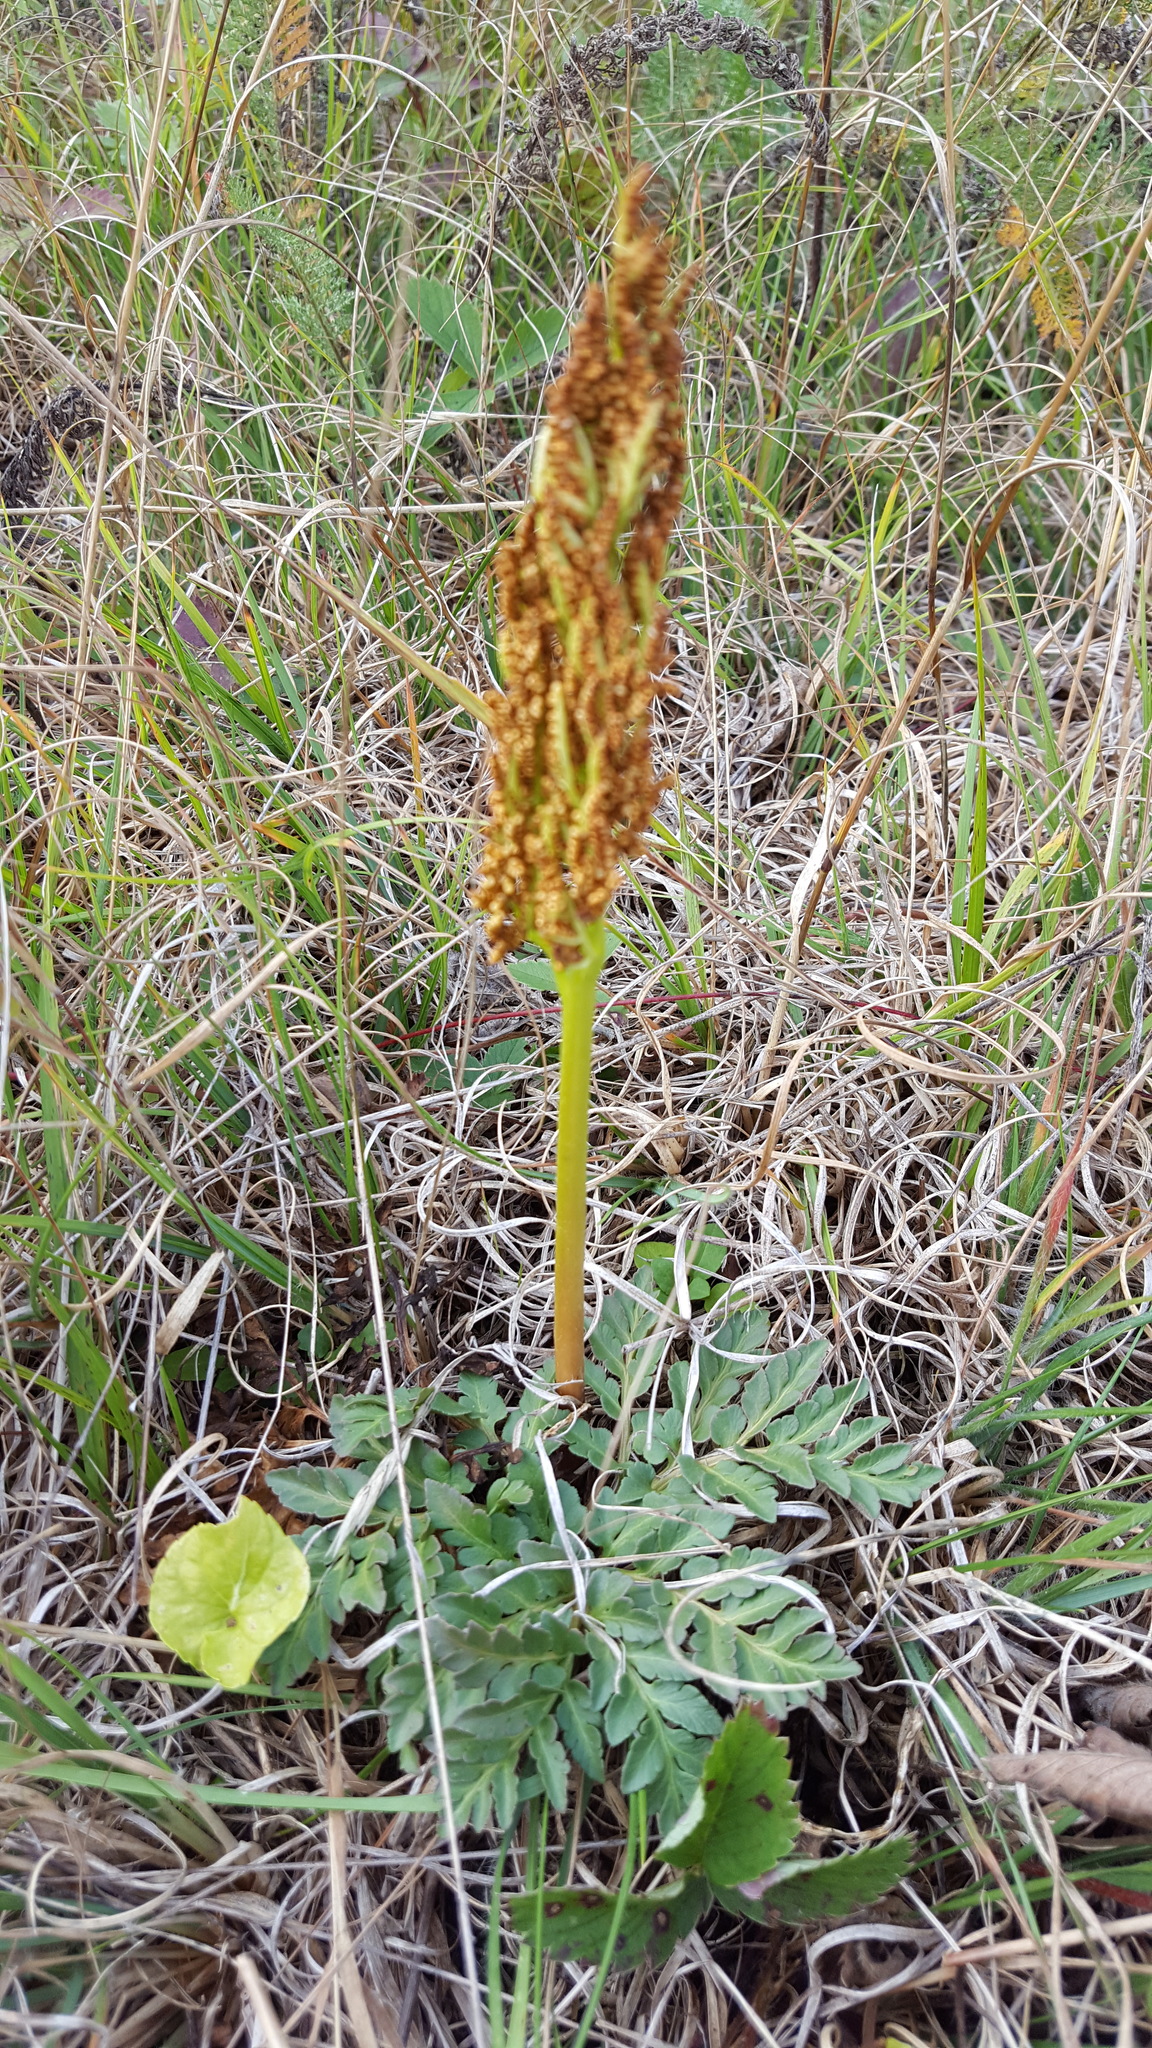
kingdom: Plantae
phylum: Tracheophyta
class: Polypodiopsida
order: Ophioglossales
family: Ophioglossaceae
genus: Sceptridium
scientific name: Sceptridium multifidum
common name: Leathery grape fern
